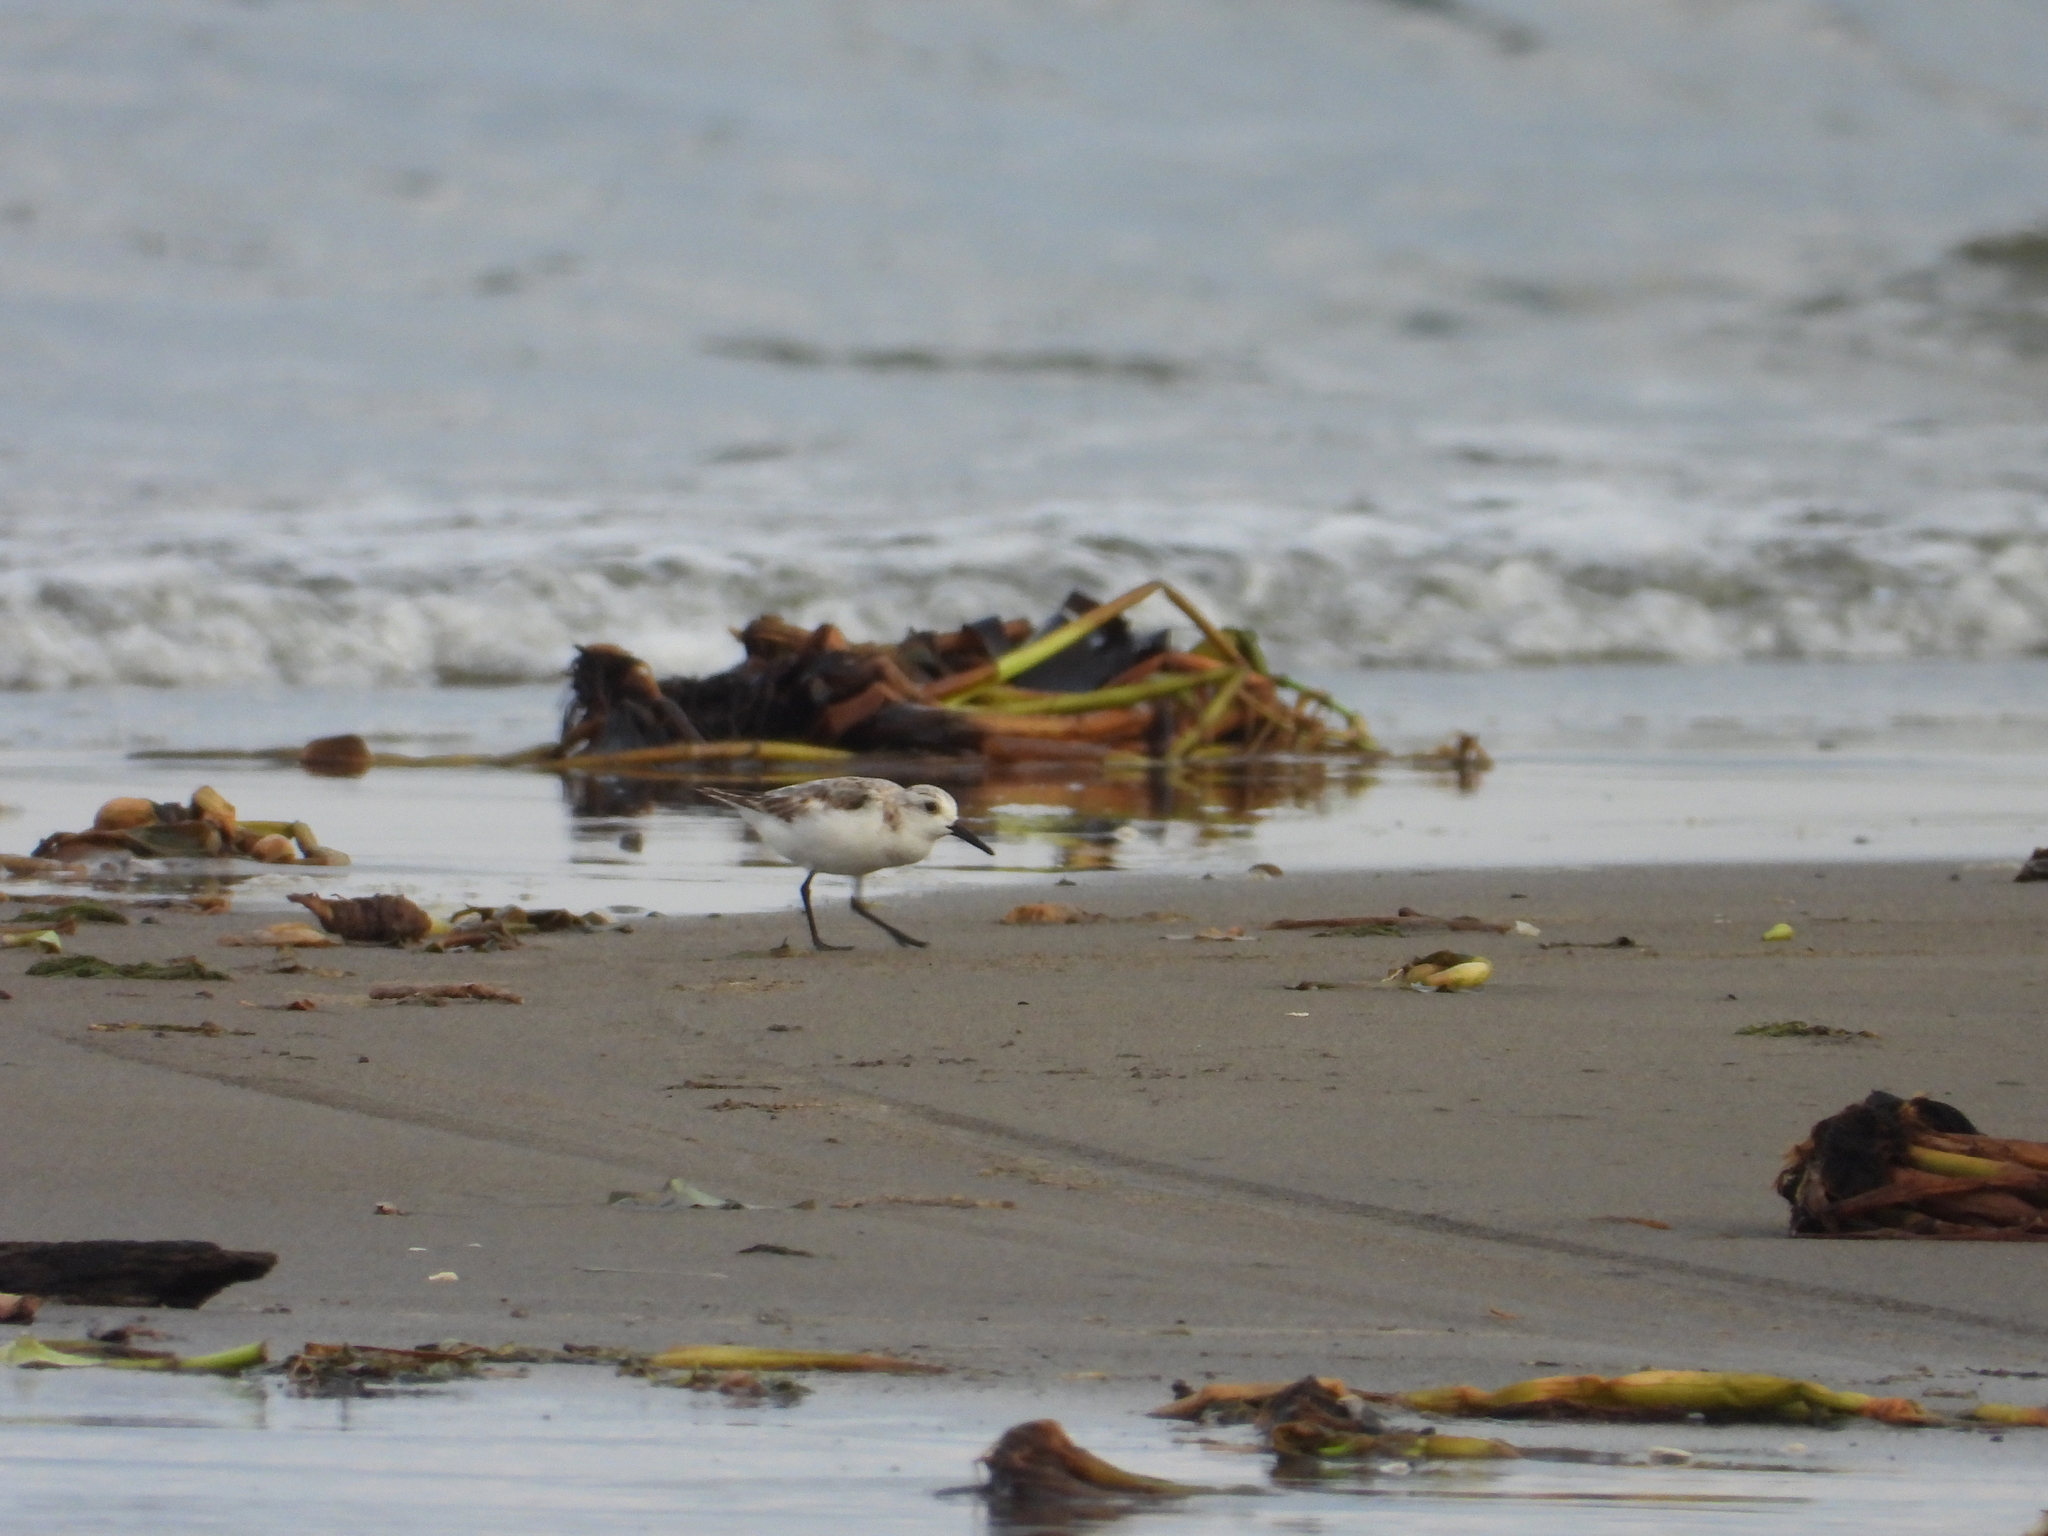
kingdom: Animalia
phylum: Chordata
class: Aves
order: Charadriiformes
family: Scolopacidae
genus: Calidris
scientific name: Calidris alba
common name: Sanderling
